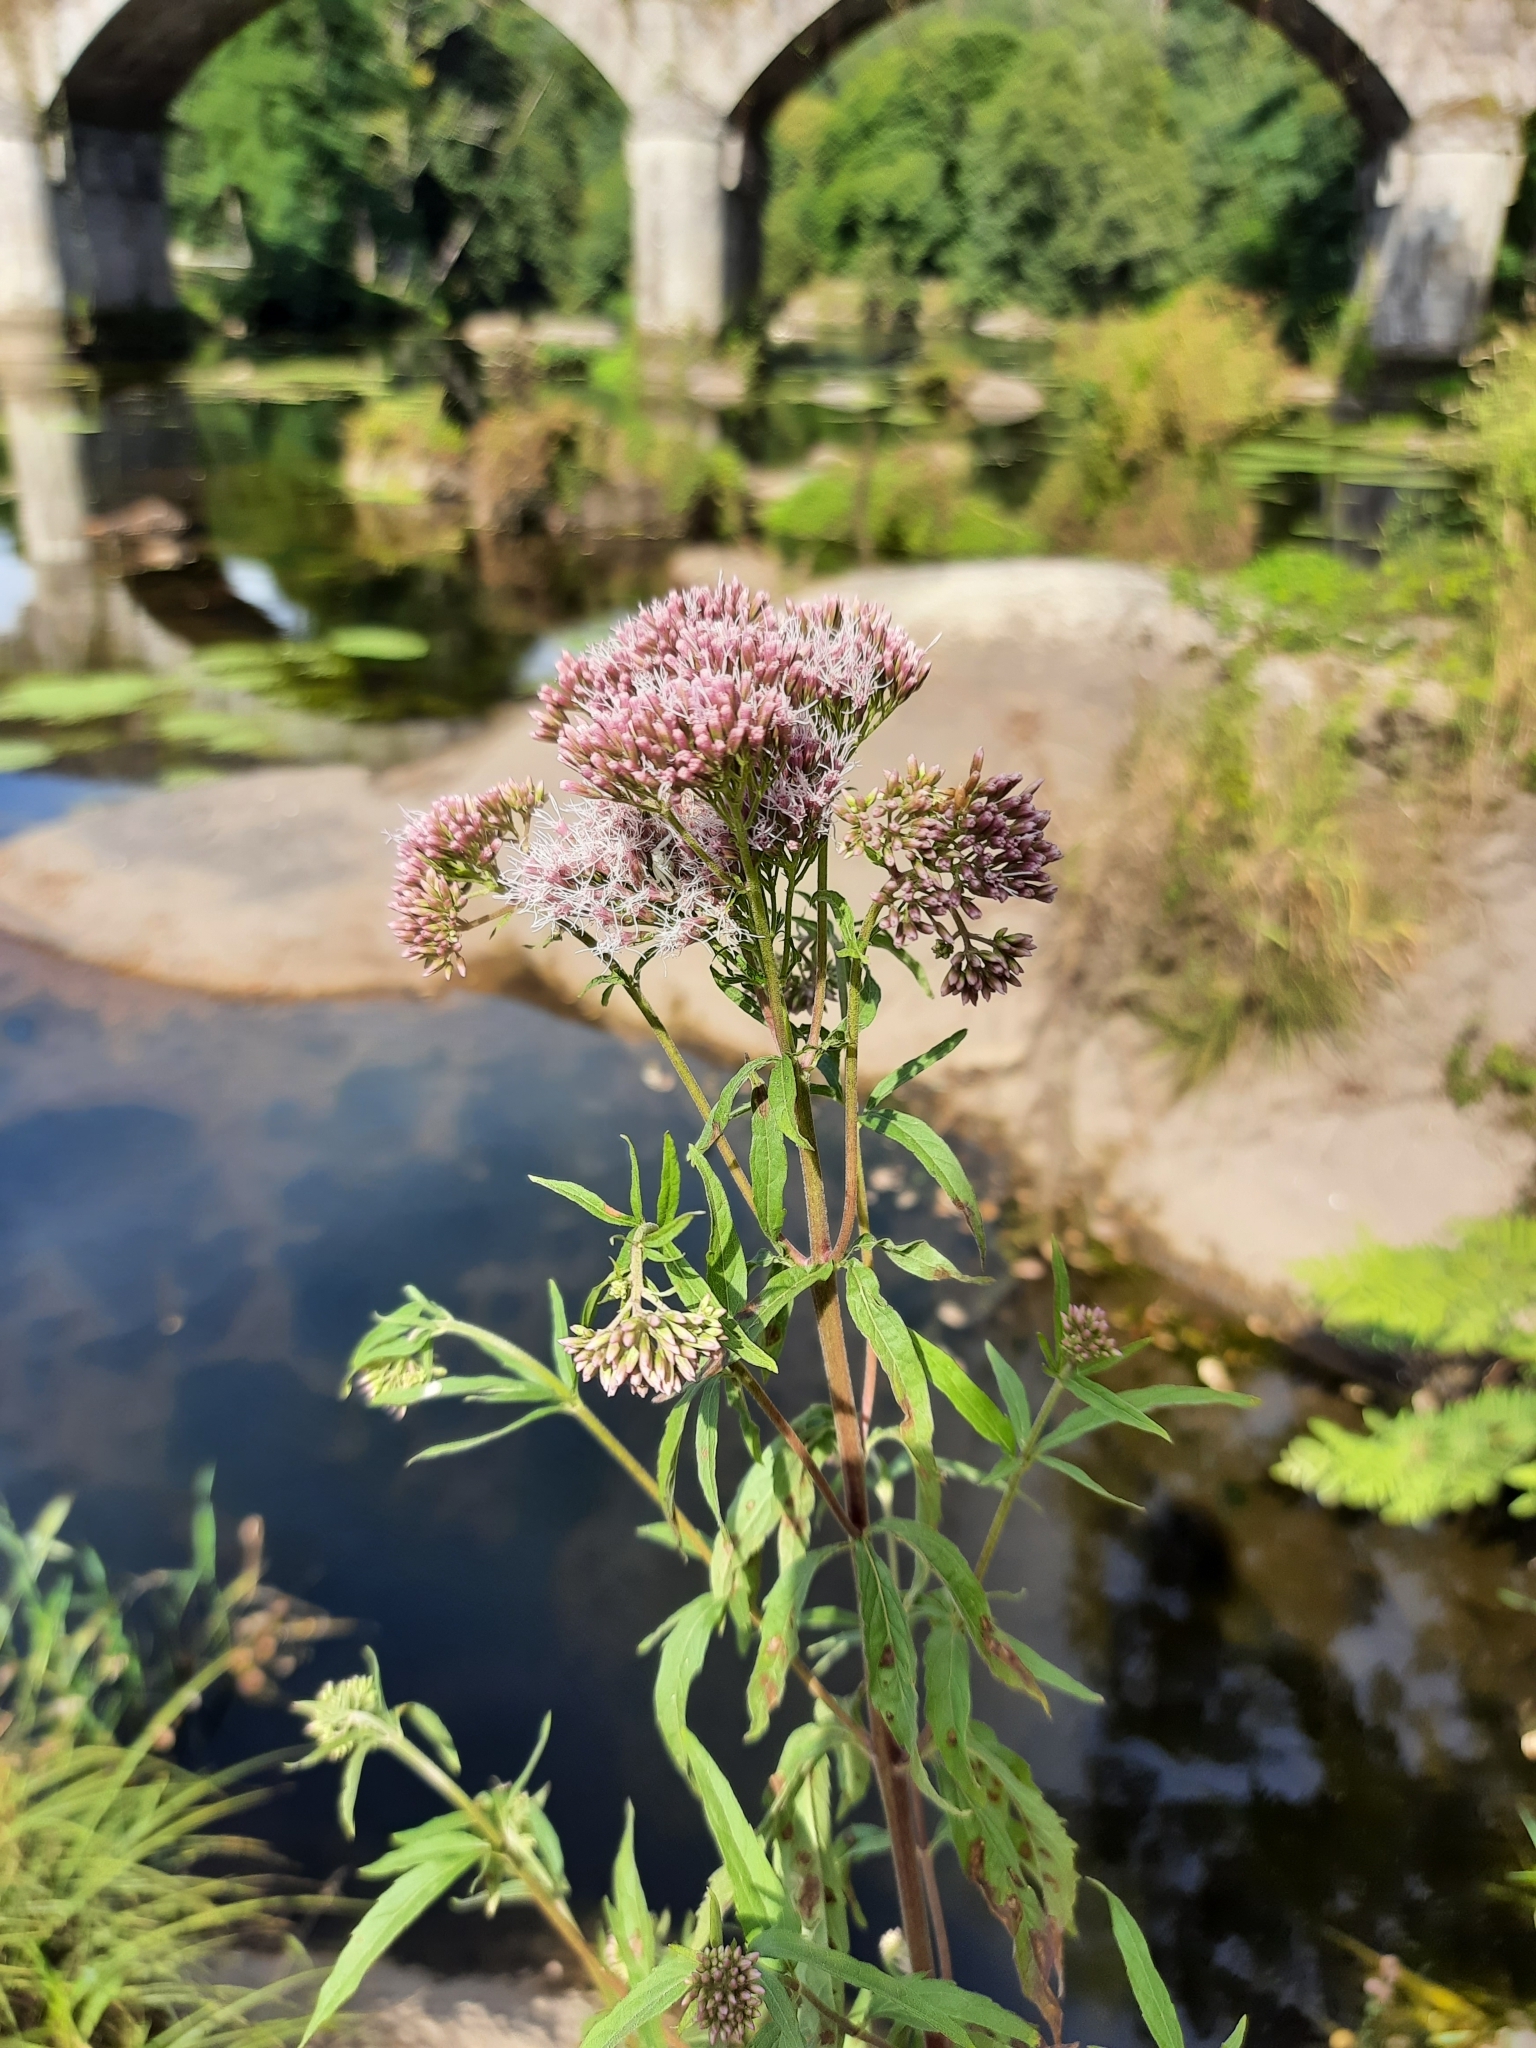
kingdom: Plantae
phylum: Tracheophyta
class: Magnoliopsida
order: Asterales
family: Asteraceae
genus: Eupatorium
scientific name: Eupatorium cannabinum
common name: Hemp-agrimony
